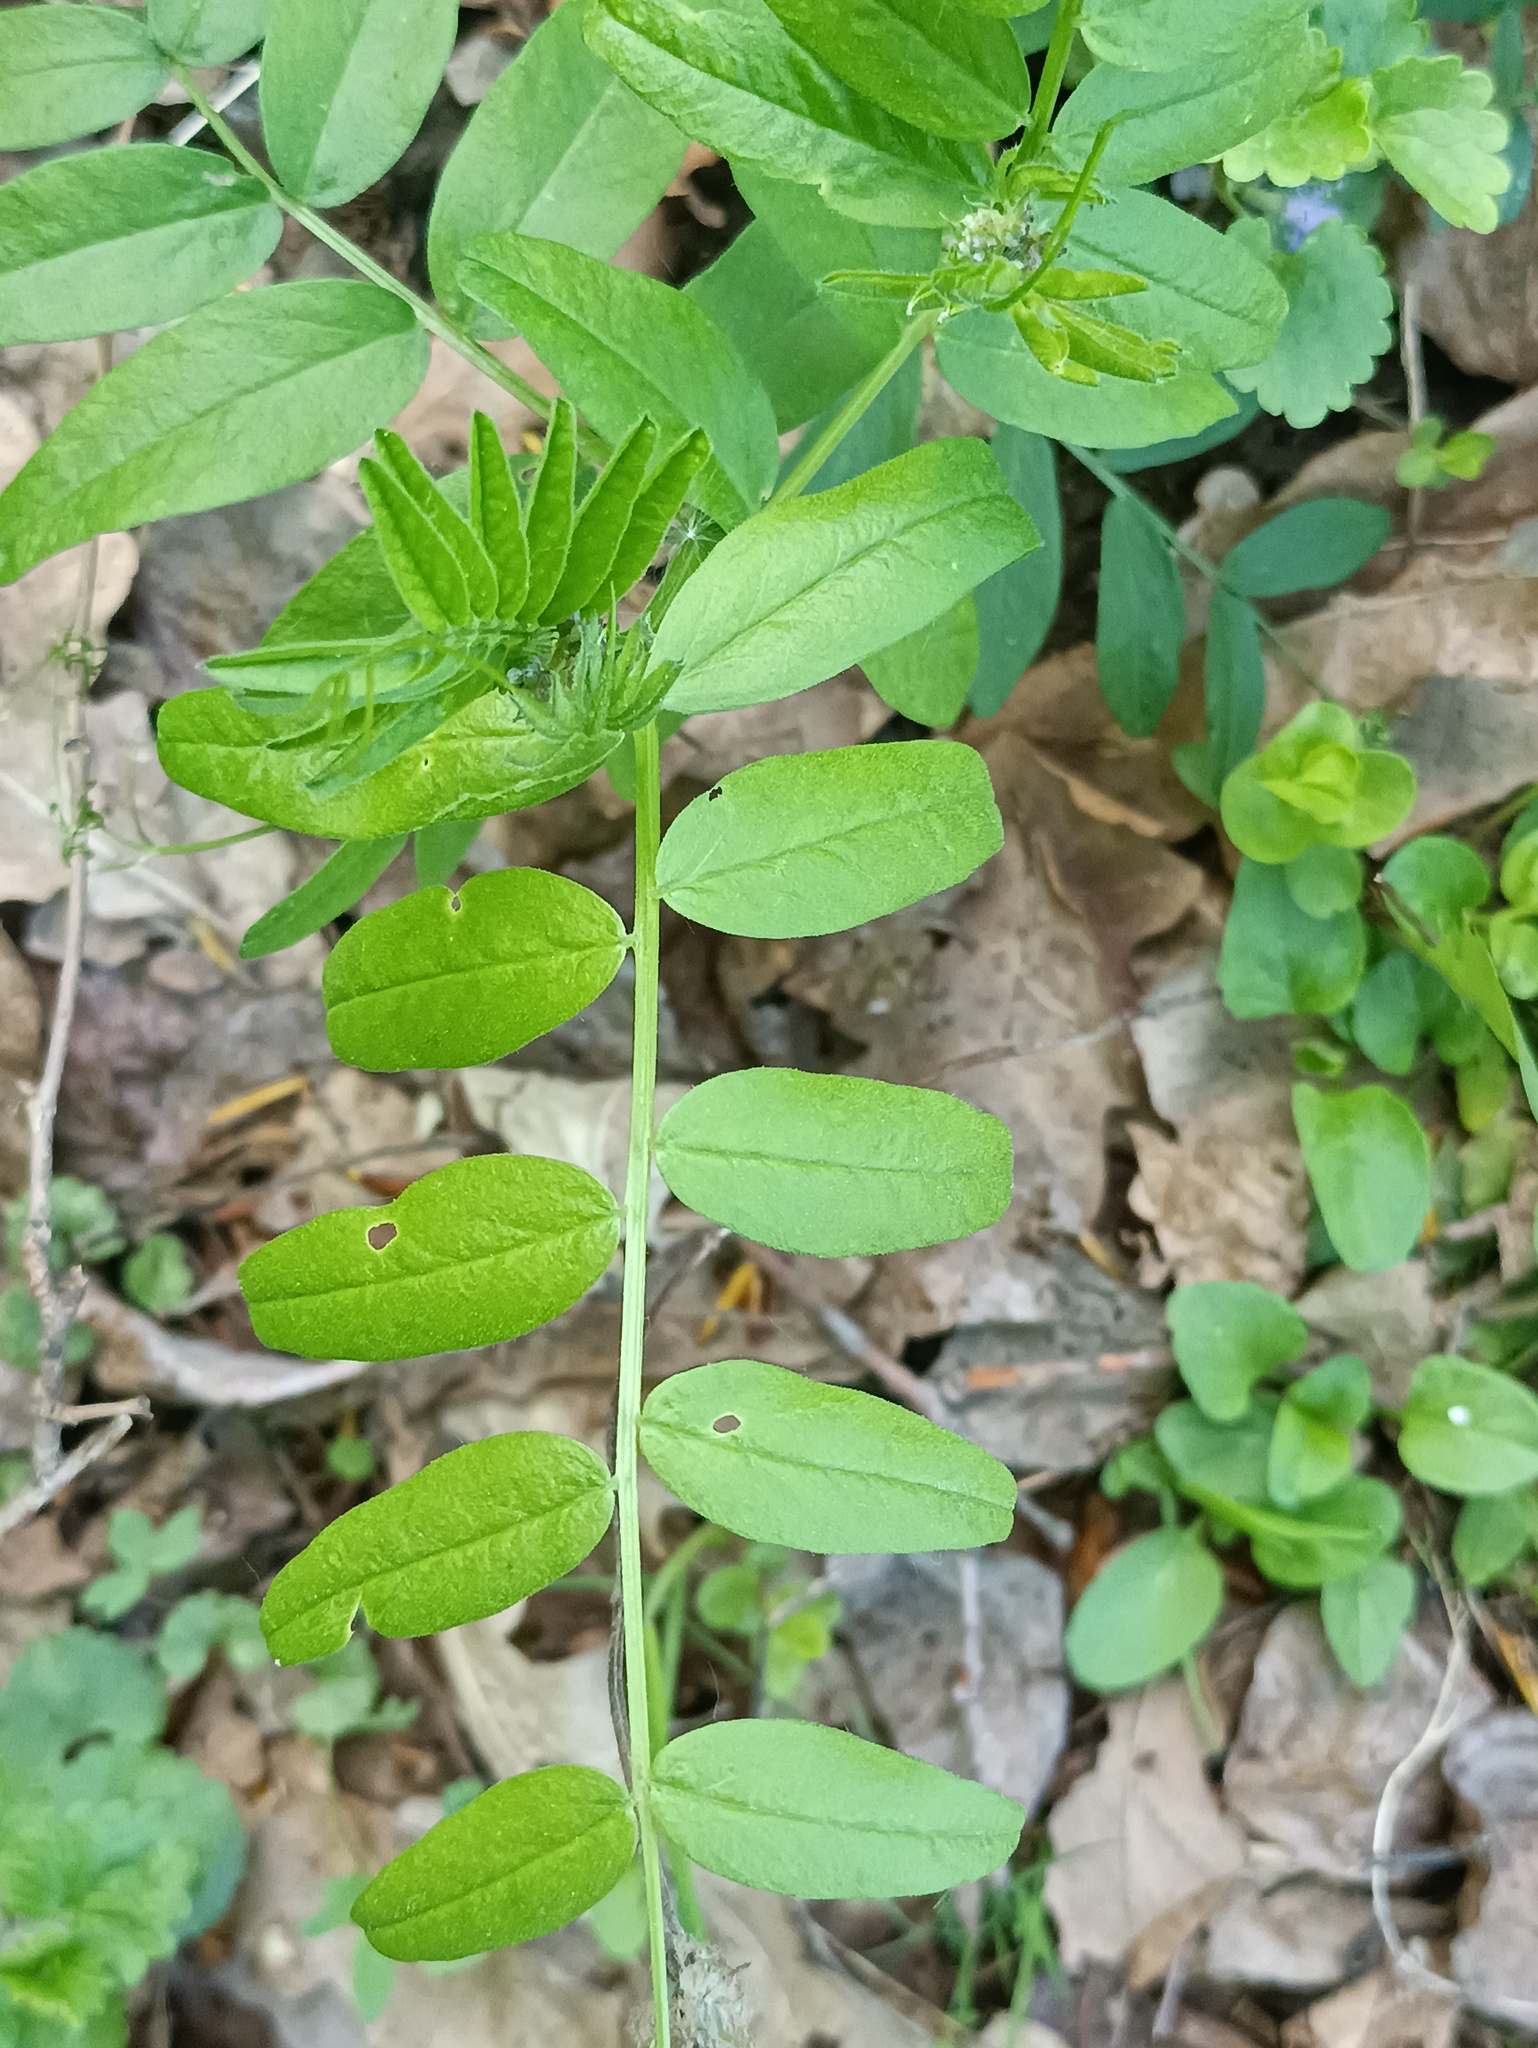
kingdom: Plantae
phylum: Tracheophyta
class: Magnoliopsida
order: Fabales
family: Fabaceae
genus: Vicia
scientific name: Vicia sepium
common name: Bush vetch
